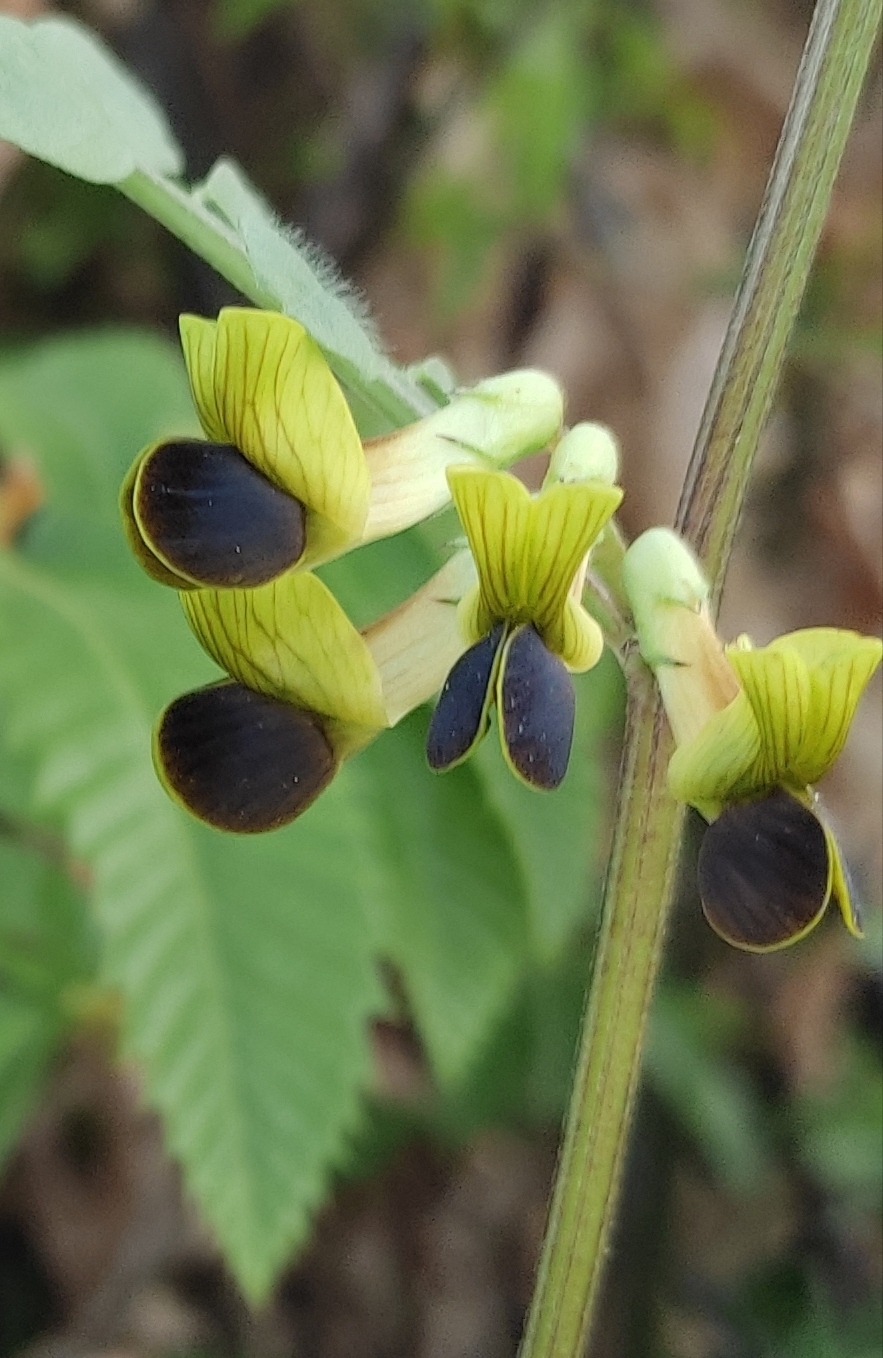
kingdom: Plantae
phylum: Tracheophyta
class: Magnoliopsida
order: Fabales
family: Fabaceae
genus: Vicia
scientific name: Vicia melanops
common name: Black-eyed vetch
